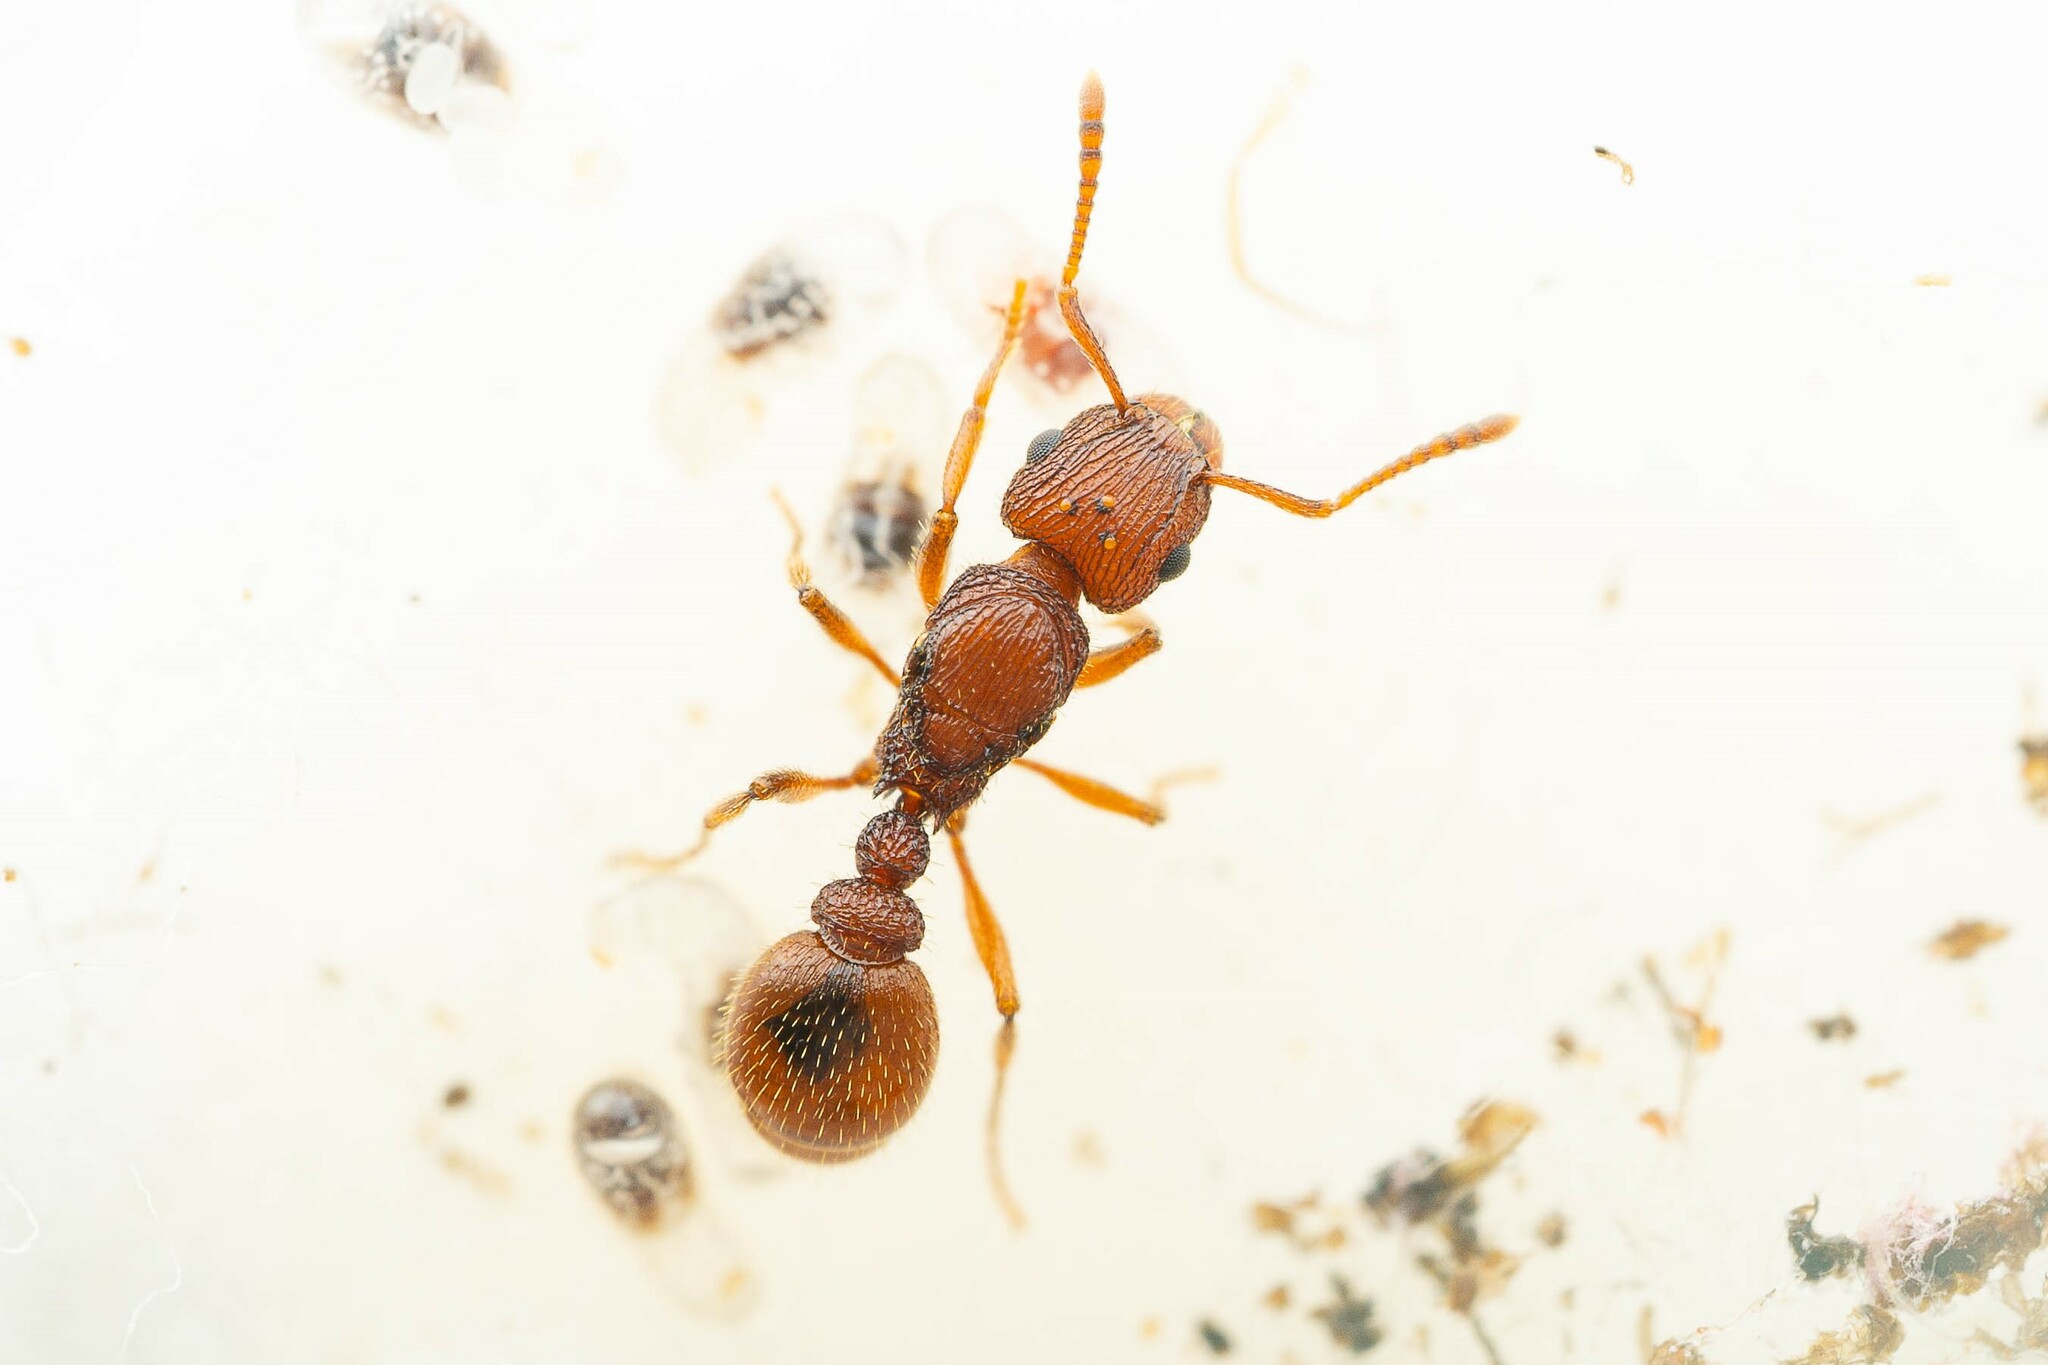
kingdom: Animalia
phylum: Arthropoda
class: Insecta
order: Hymenoptera
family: Formicidae
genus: Tetramorium
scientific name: Tetramorium hispidum
